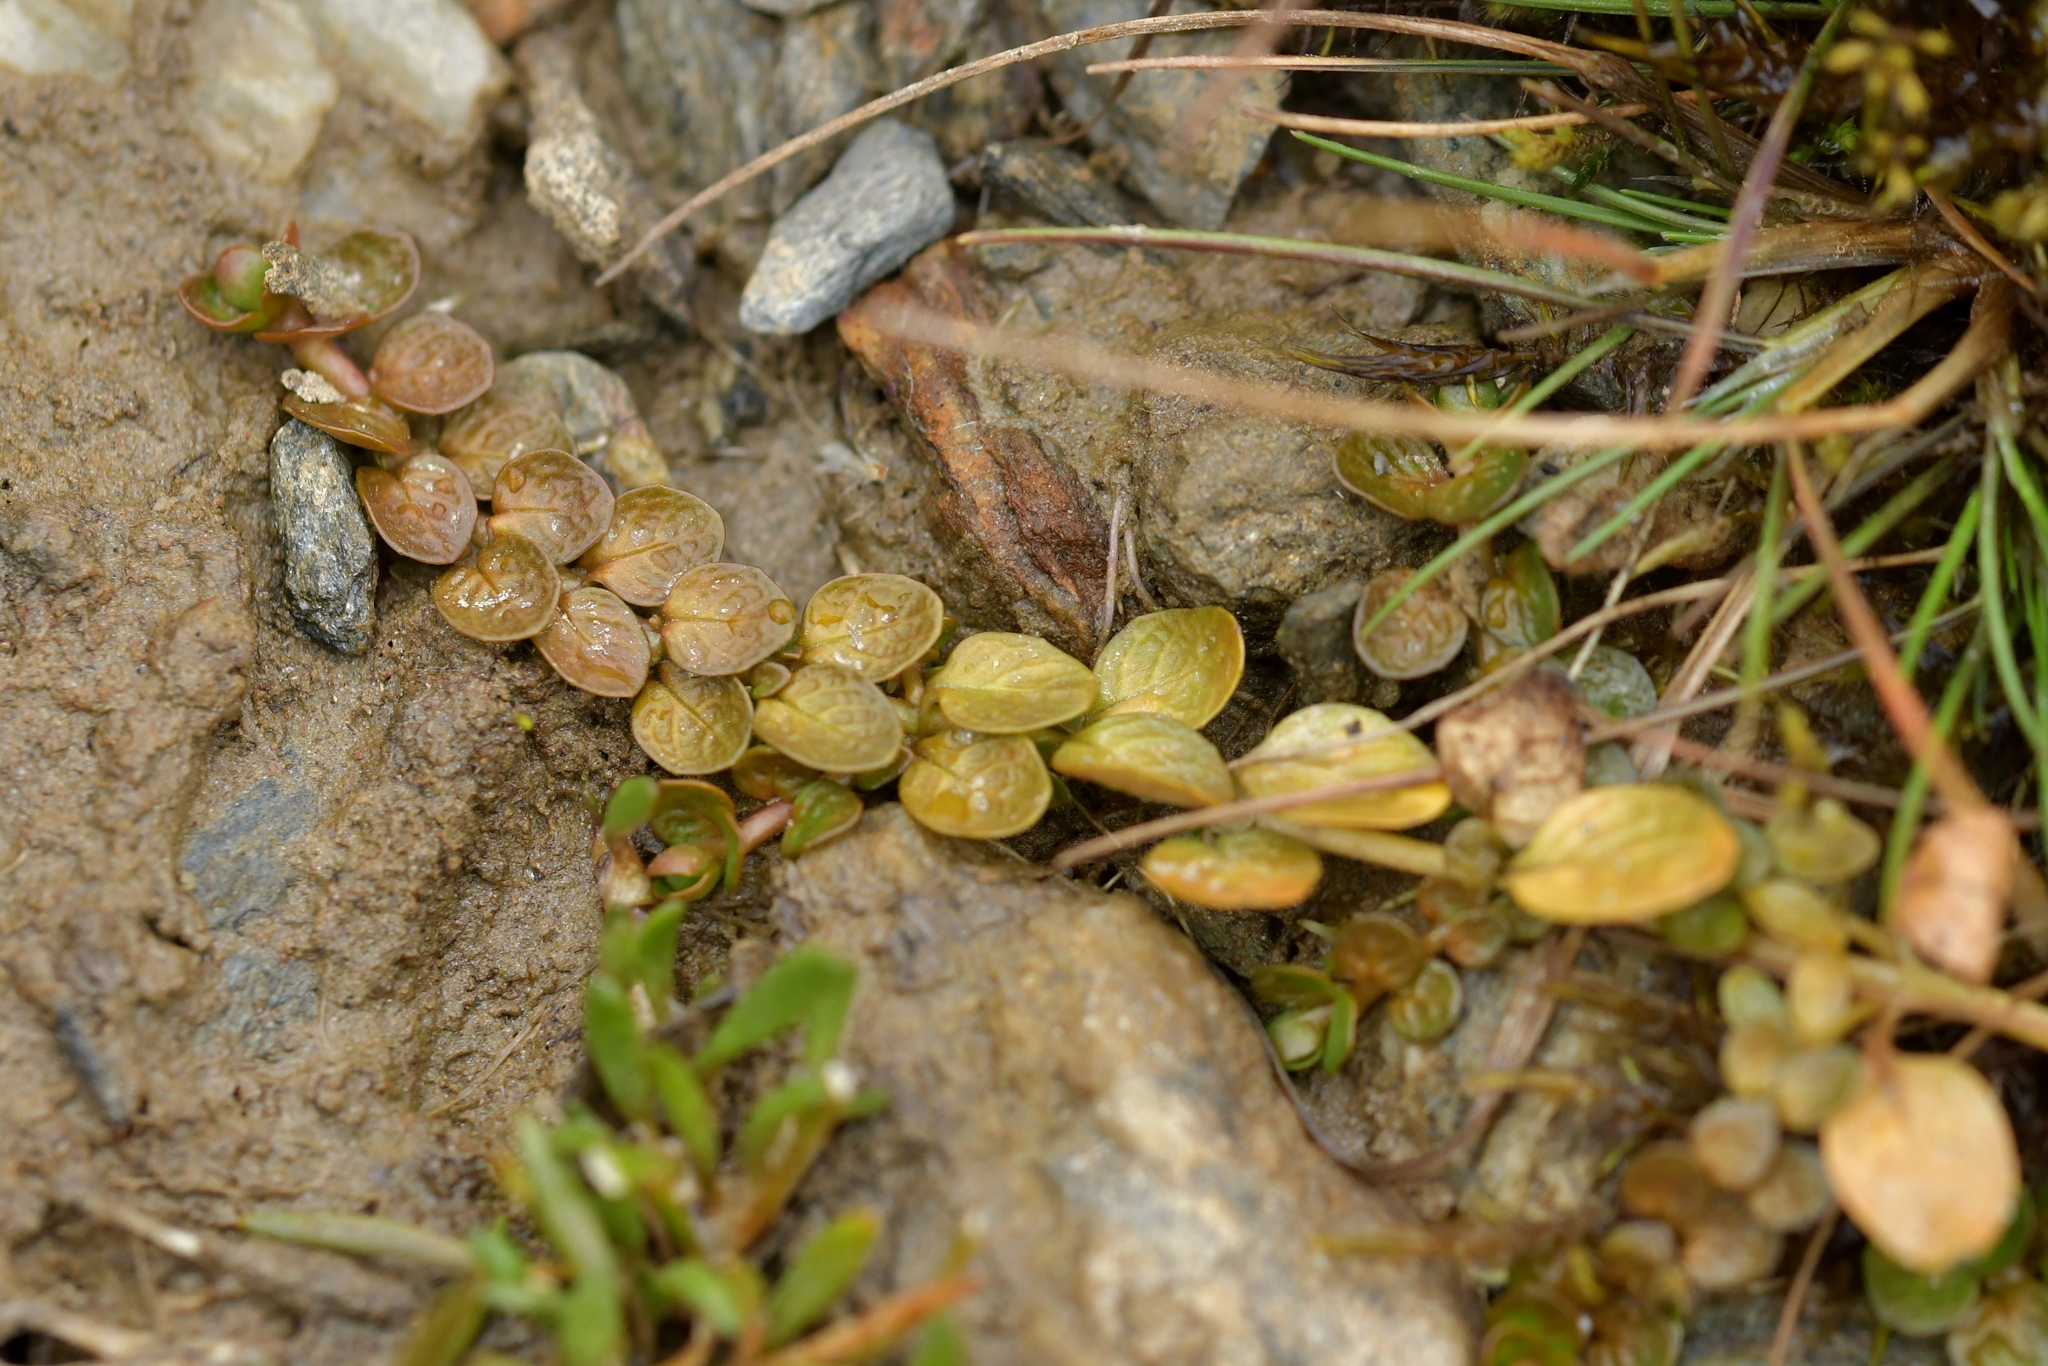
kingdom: Plantae
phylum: Tracheophyta
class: Magnoliopsida
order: Myrtales
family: Onagraceae
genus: Epilobium
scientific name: Epilobium komarovianum
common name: Bronzy willowherb
